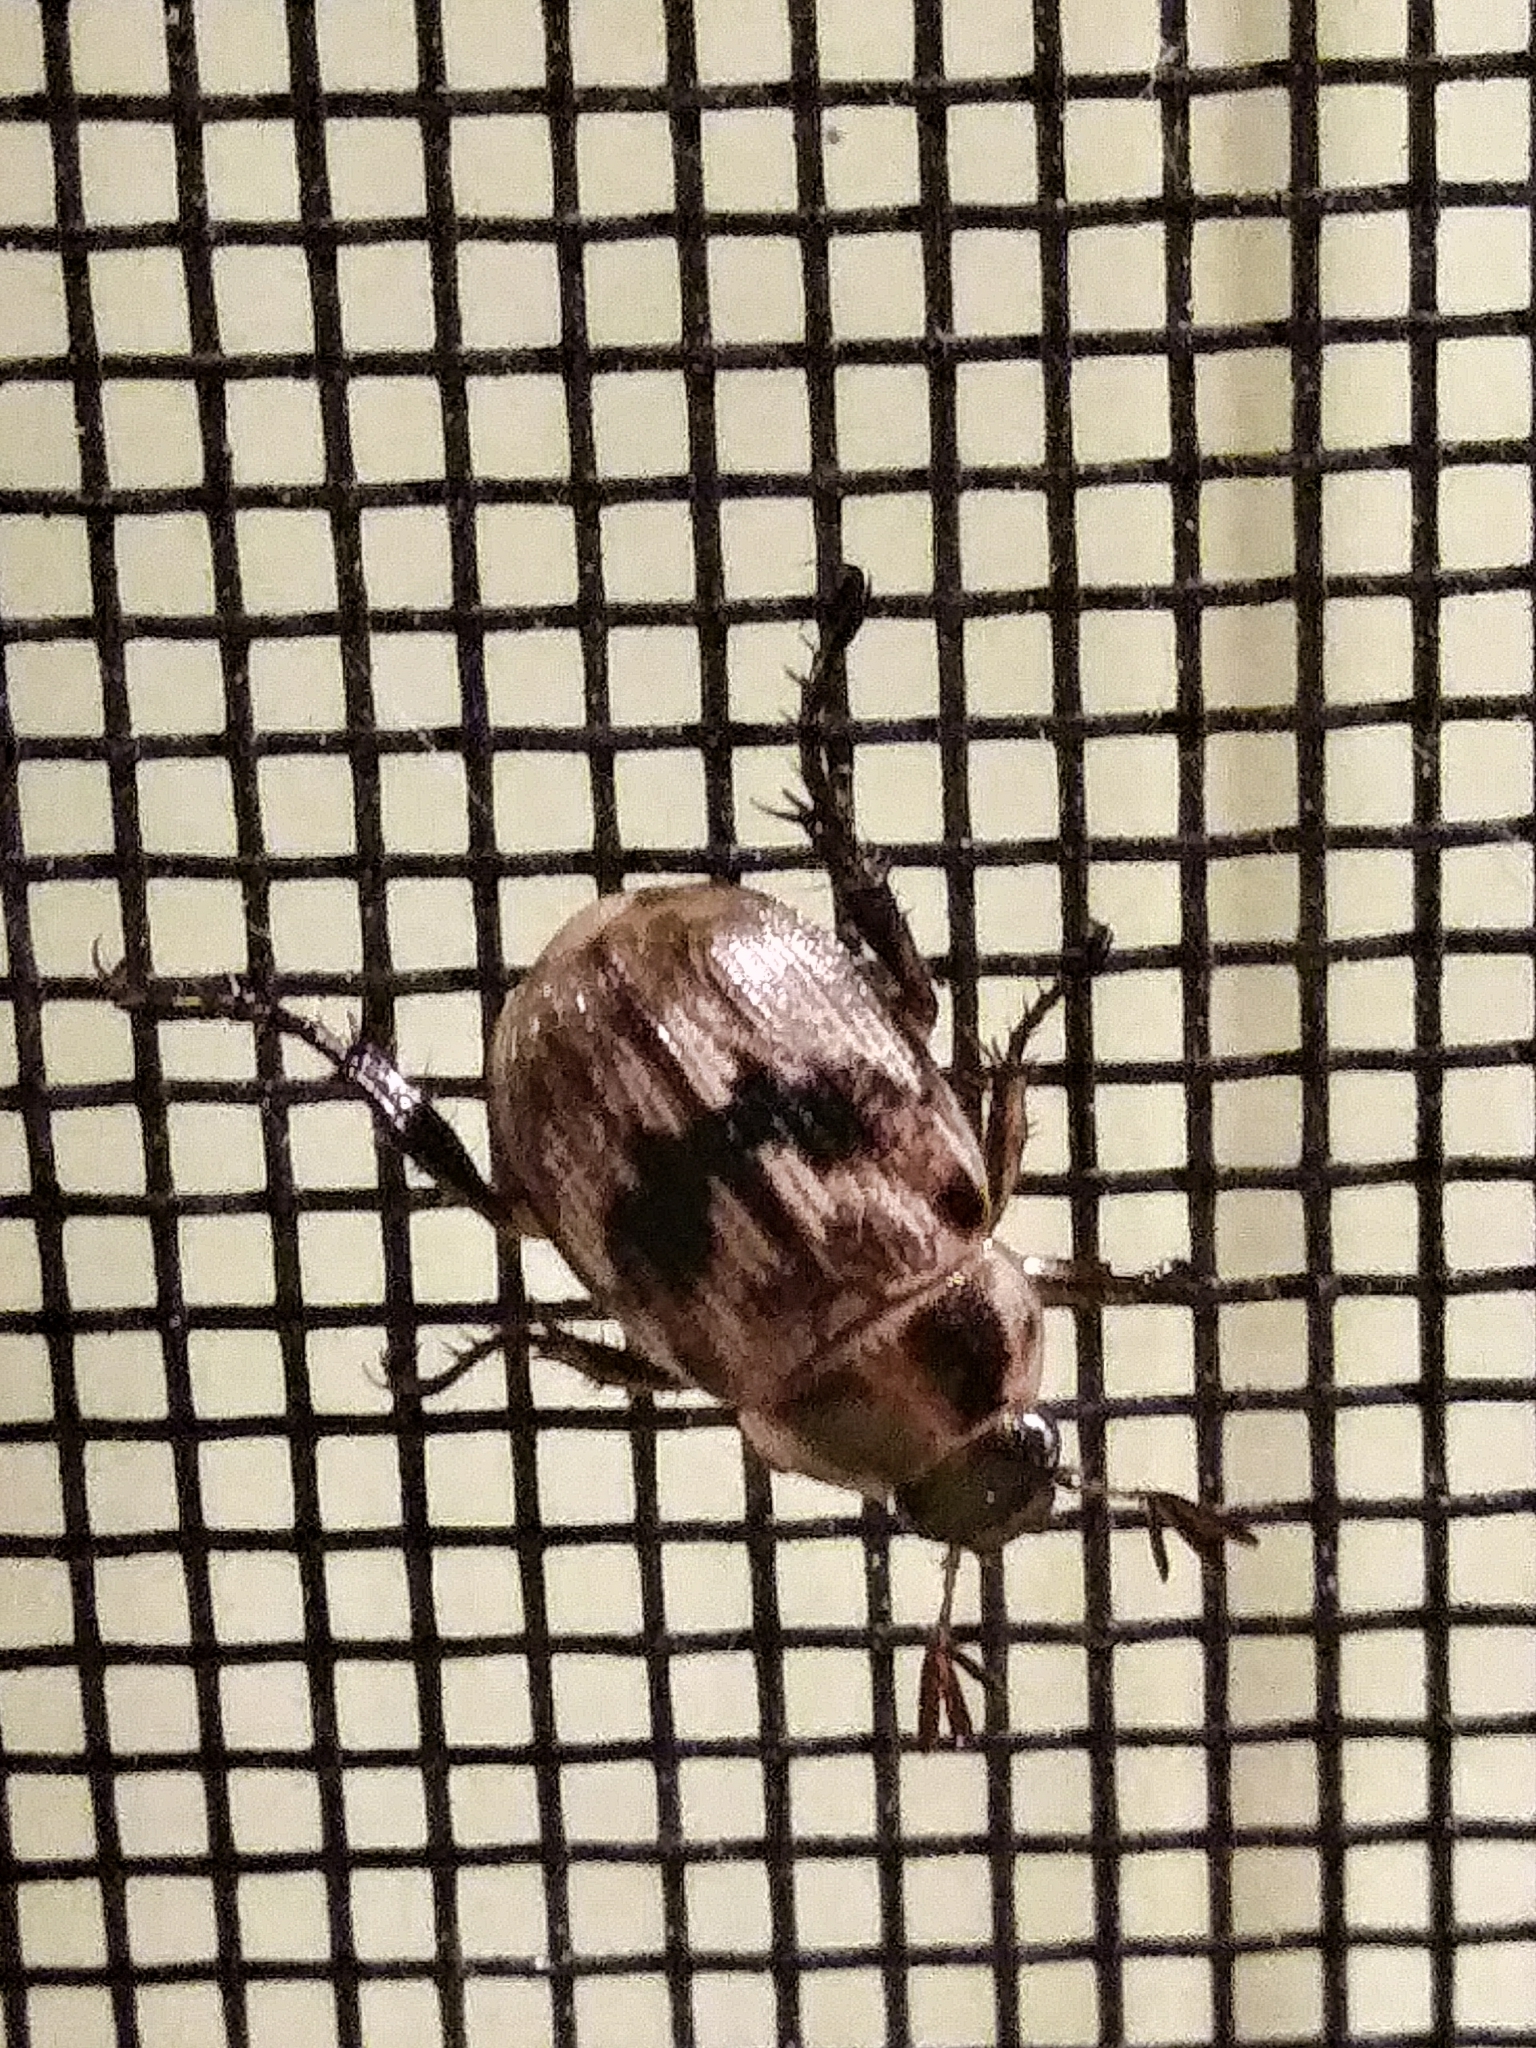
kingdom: Animalia
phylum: Arthropoda
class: Insecta
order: Coleoptera
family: Scarabaeidae
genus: Exomala
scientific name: Exomala orientalis
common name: Oriental beetle
